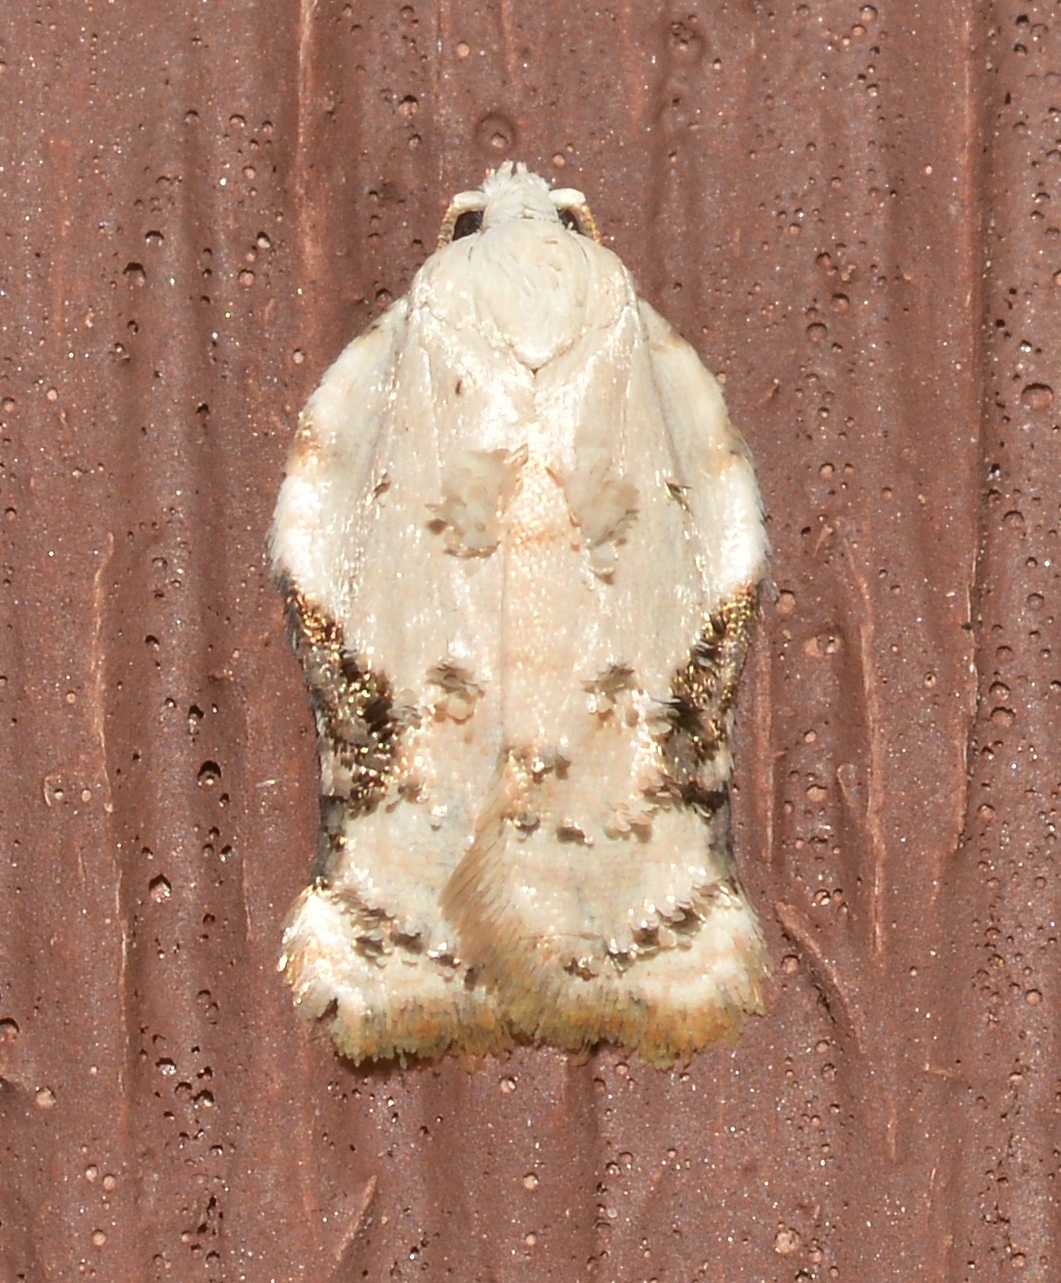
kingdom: Animalia
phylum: Arthropoda
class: Insecta
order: Lepidoptera
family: Tortricidae
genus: Acleris
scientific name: Acleris subnivana
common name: Bent-winged acleris moth
